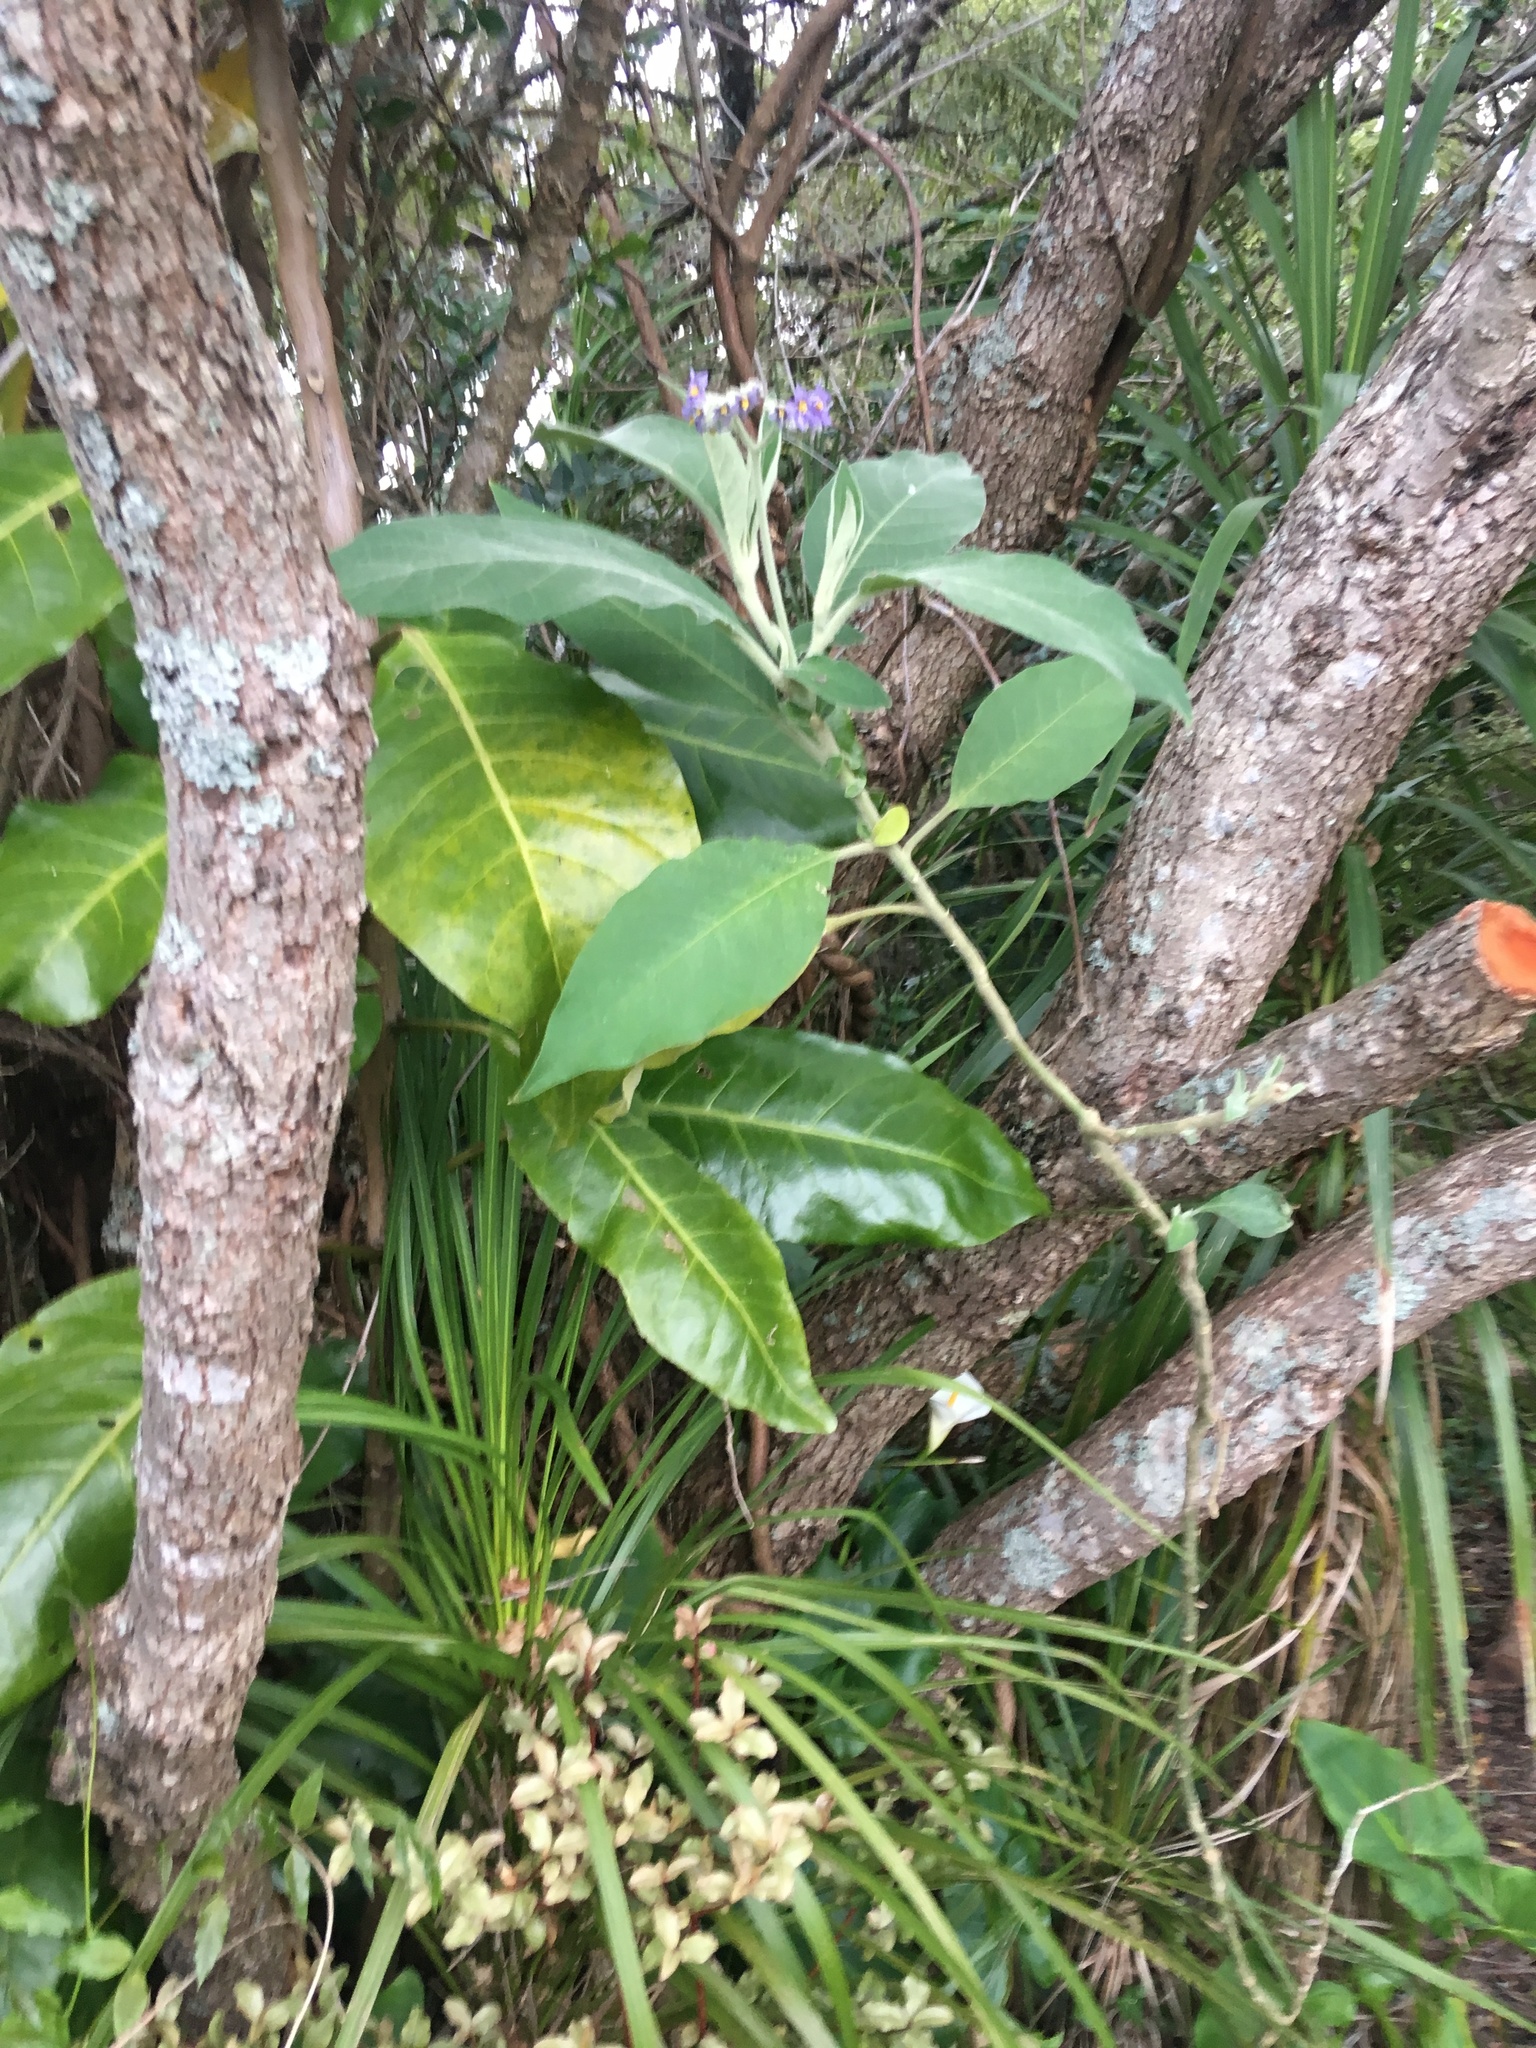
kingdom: Plantae
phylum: Tracheophyta
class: Magnoliopsida
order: Solanales
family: Solanaceae
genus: Solanum
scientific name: Solanum mauritianum
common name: Earleaf nightshade
